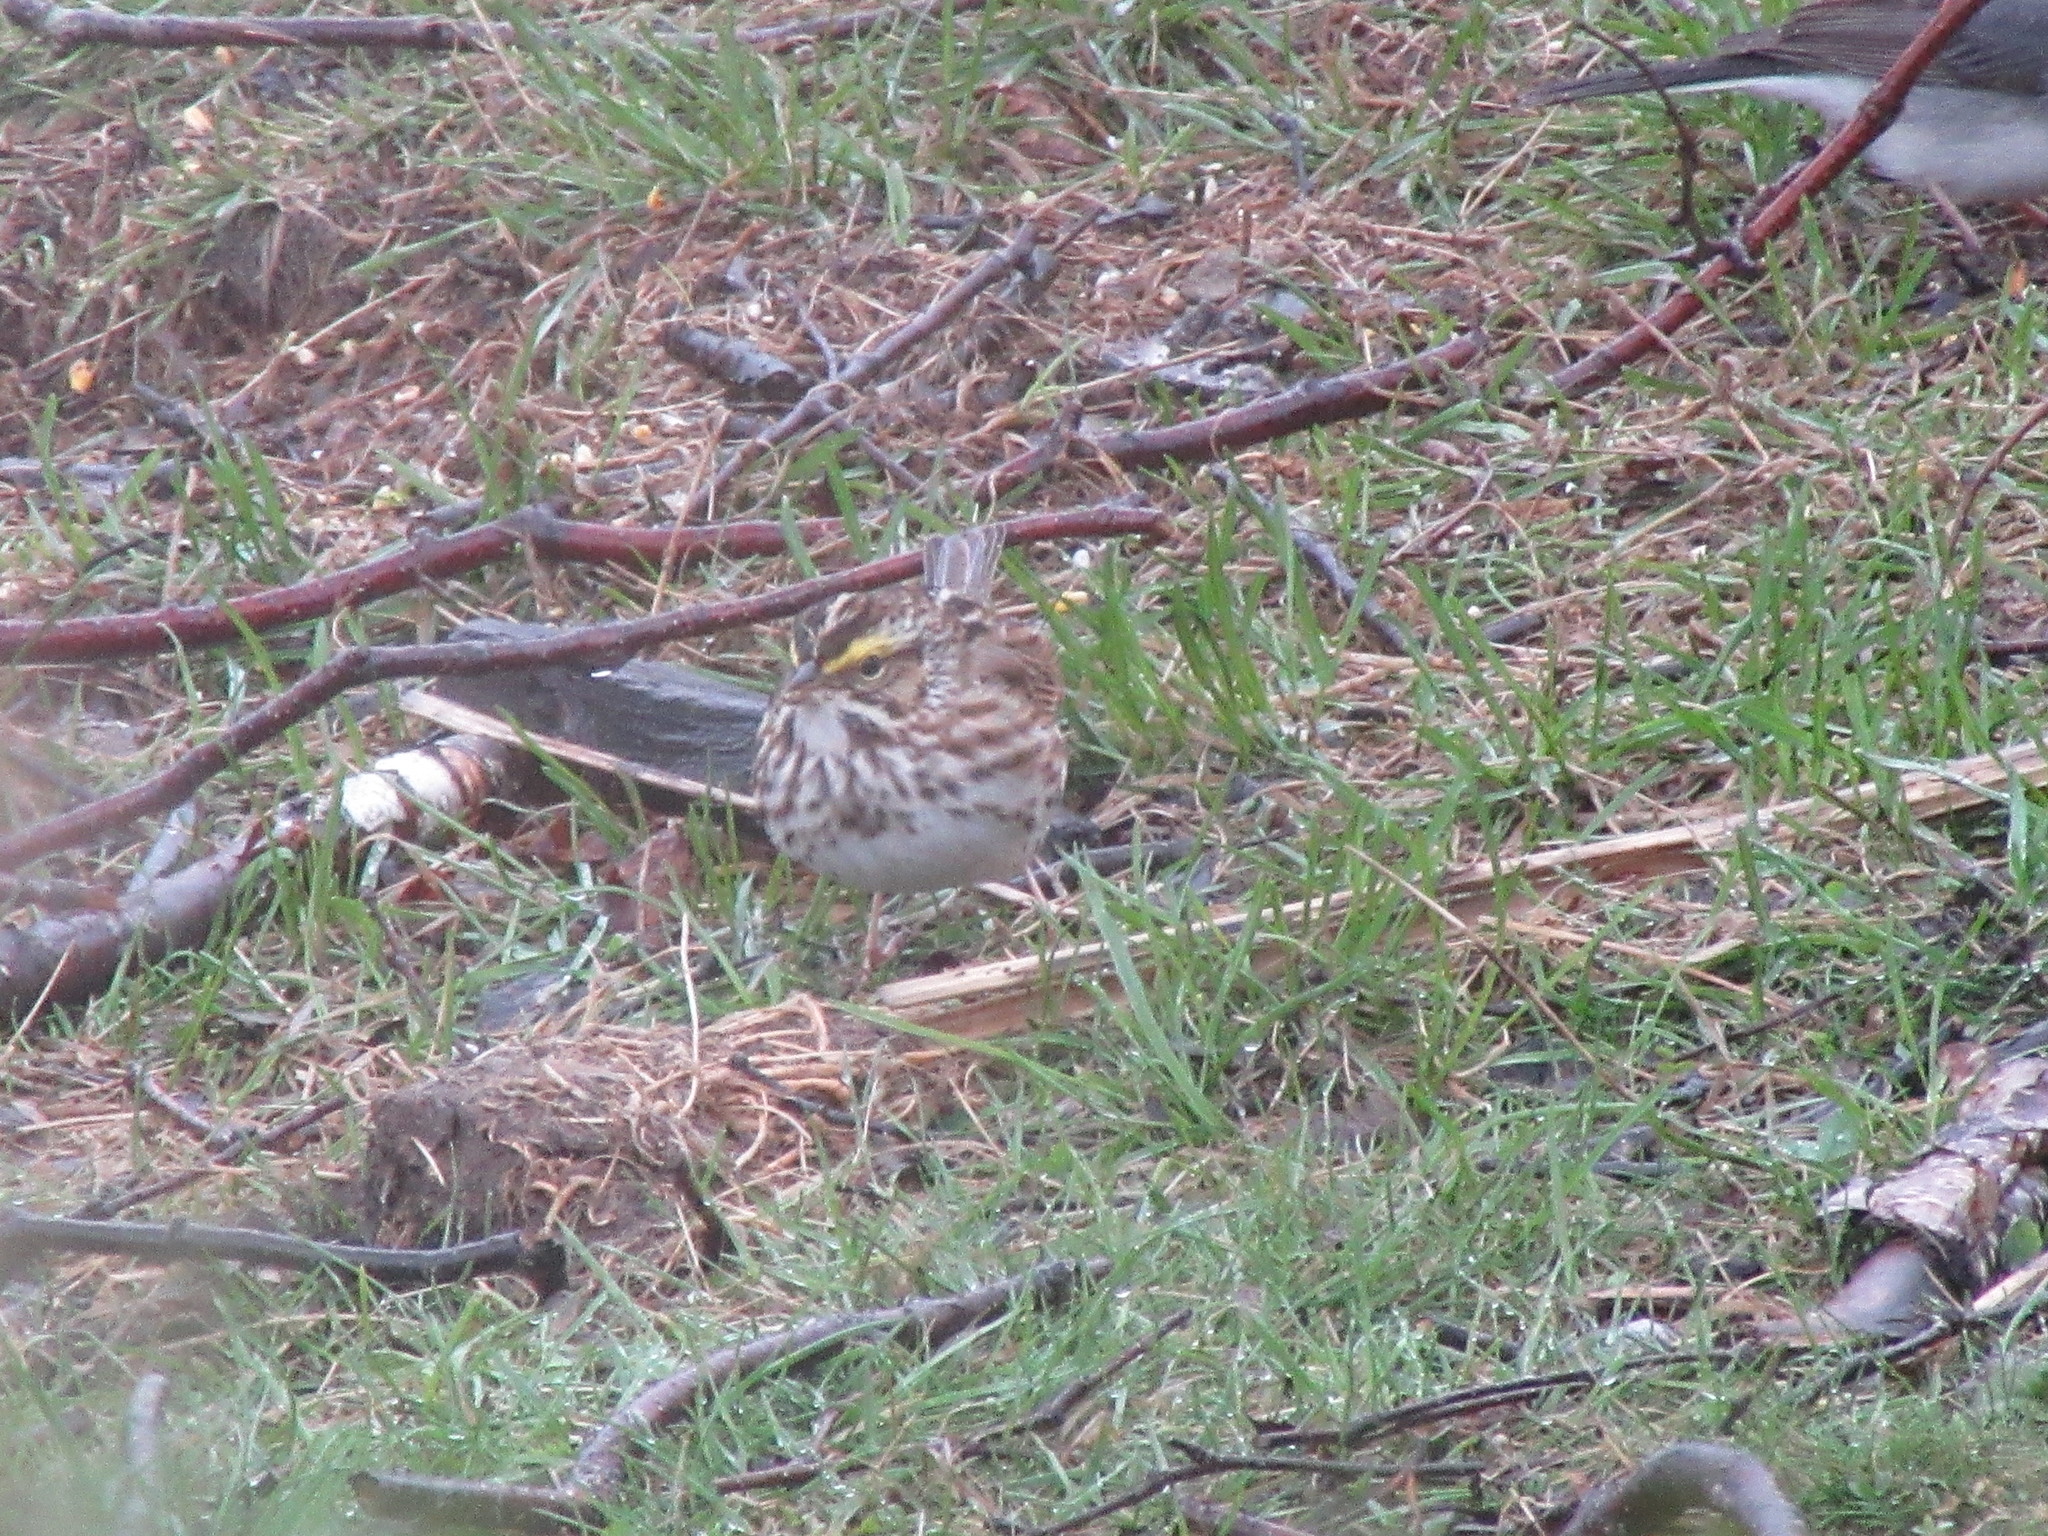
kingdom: Animalia
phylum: Chordata
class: Aves
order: Passeriformes
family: Passerellidae
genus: Passerculus
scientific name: Passerculus sandwichensis
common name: Savannah sparrow
